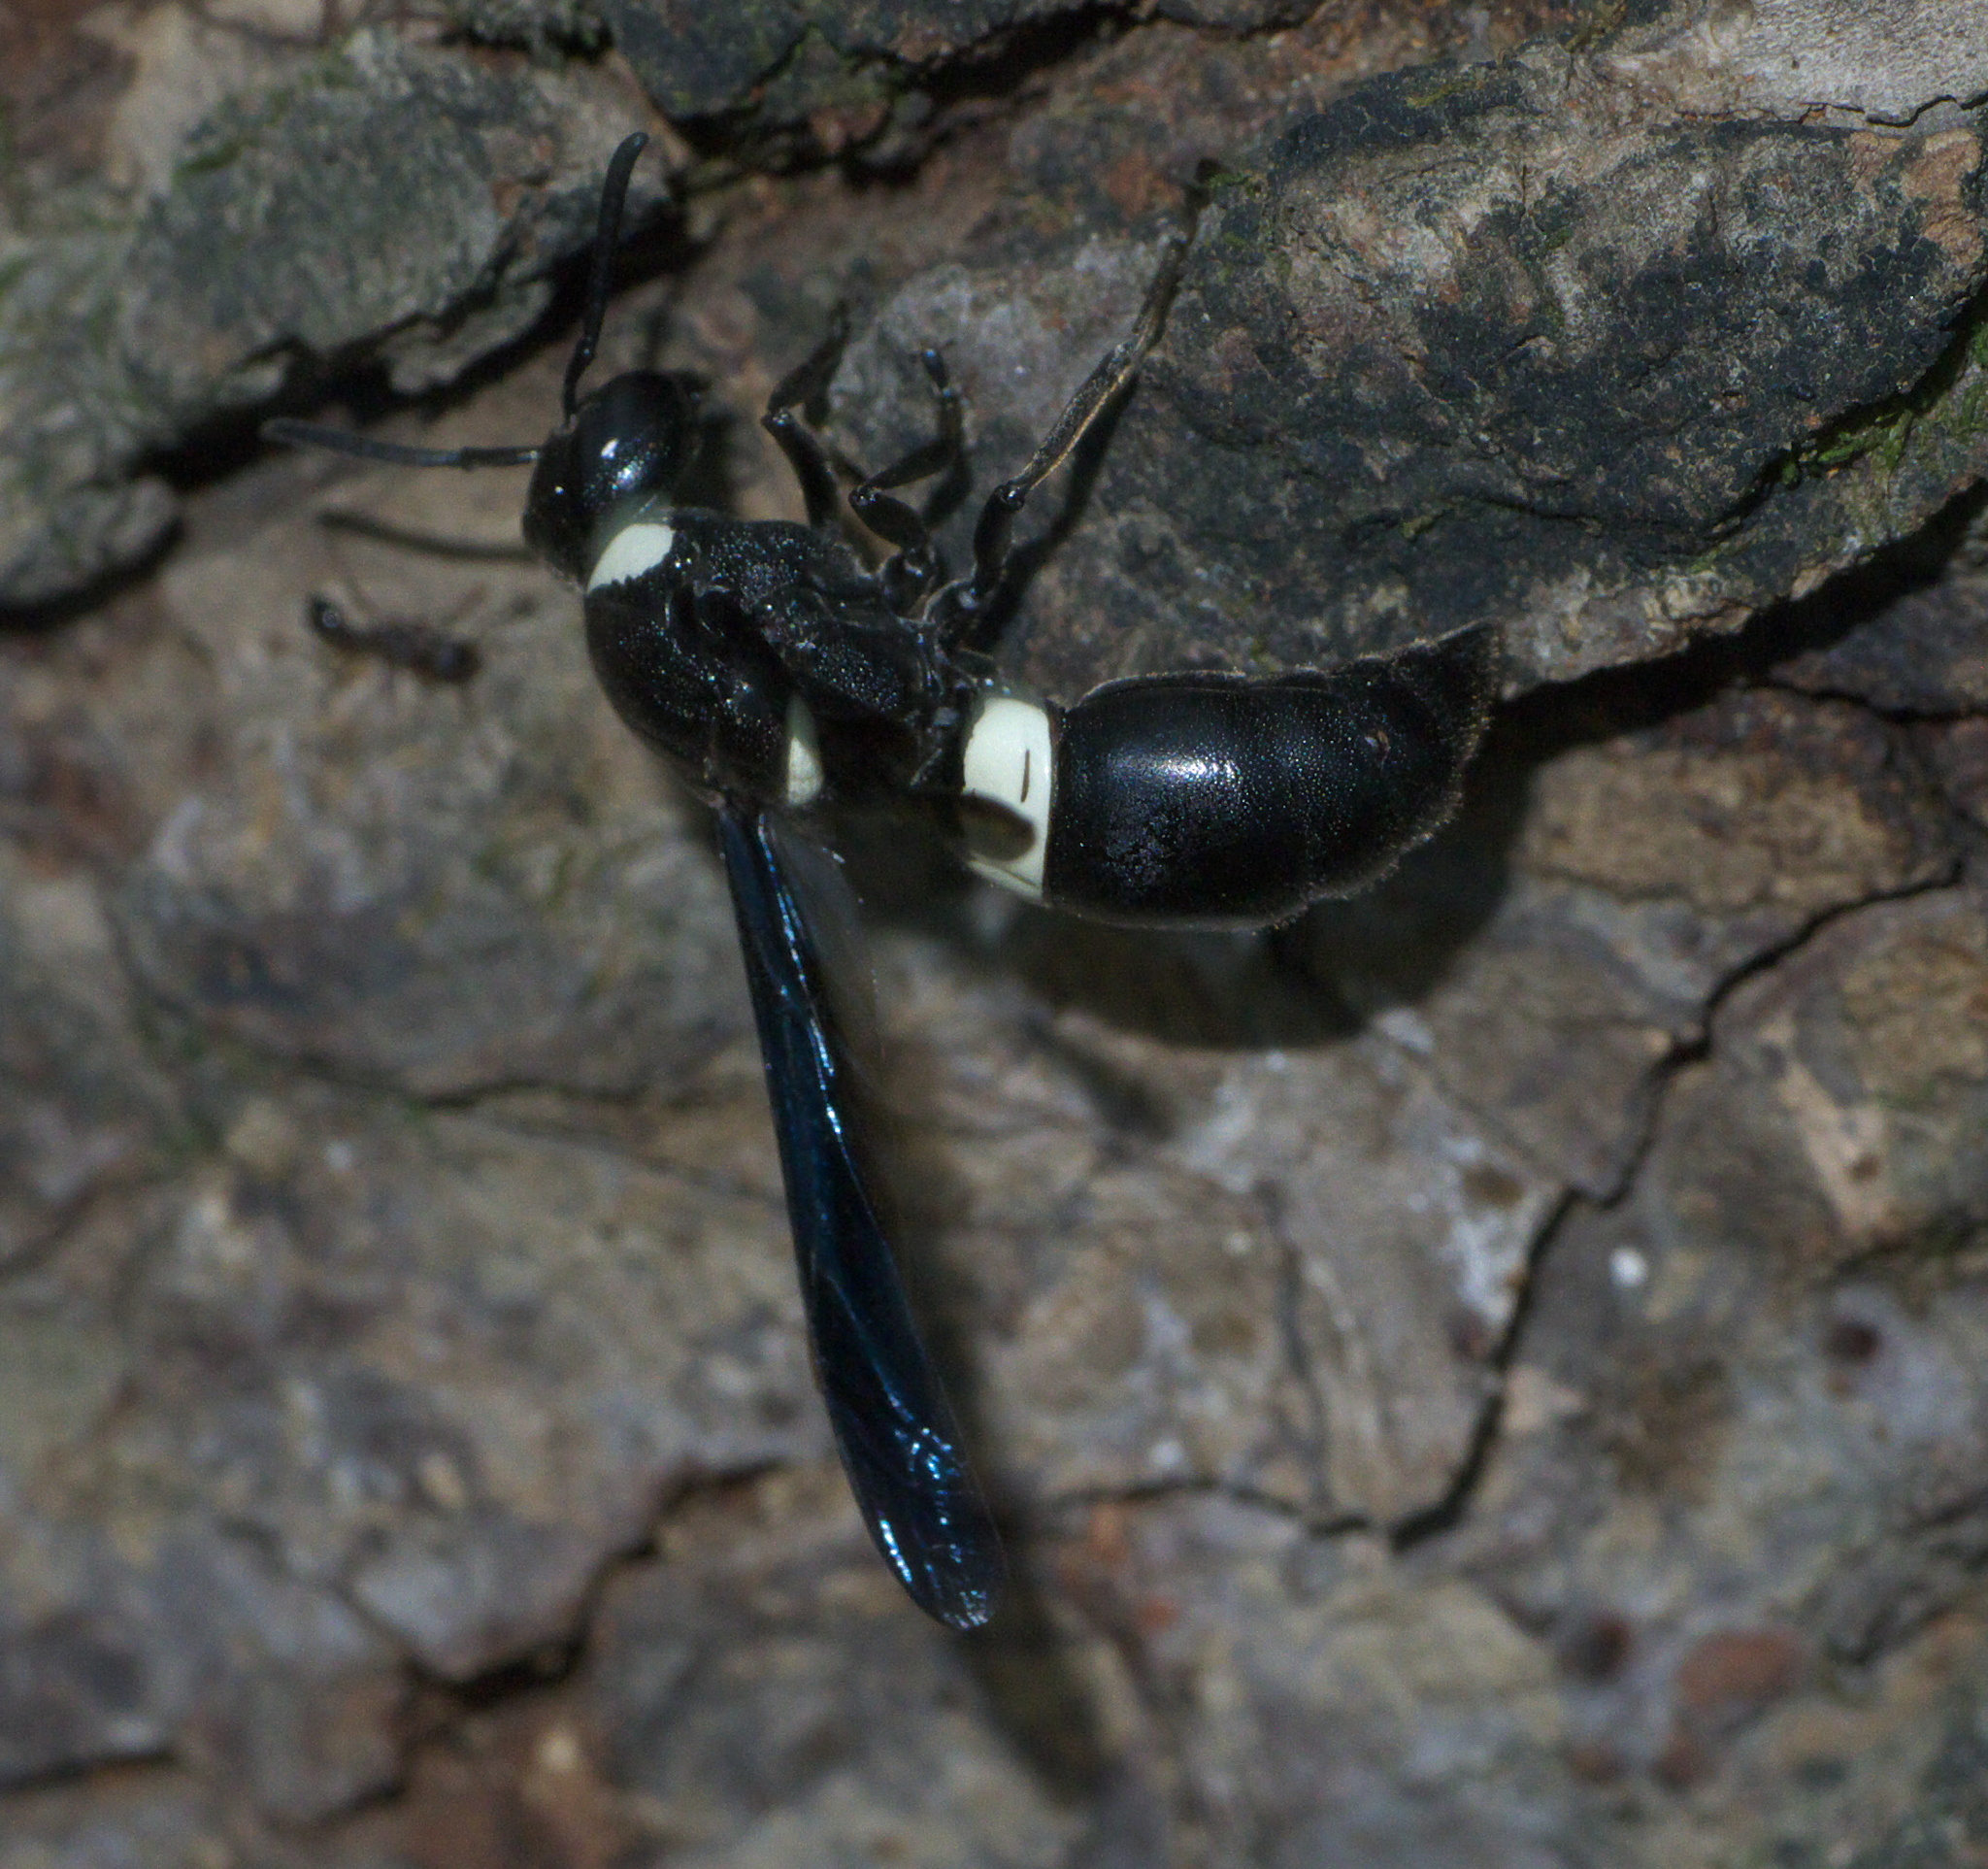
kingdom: Animalia
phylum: Arthropoda
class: Insecta
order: Hymenoptera
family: Eumenidae
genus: Monobia
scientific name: Monobia quadridens
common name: Four-toothed mason wasp
